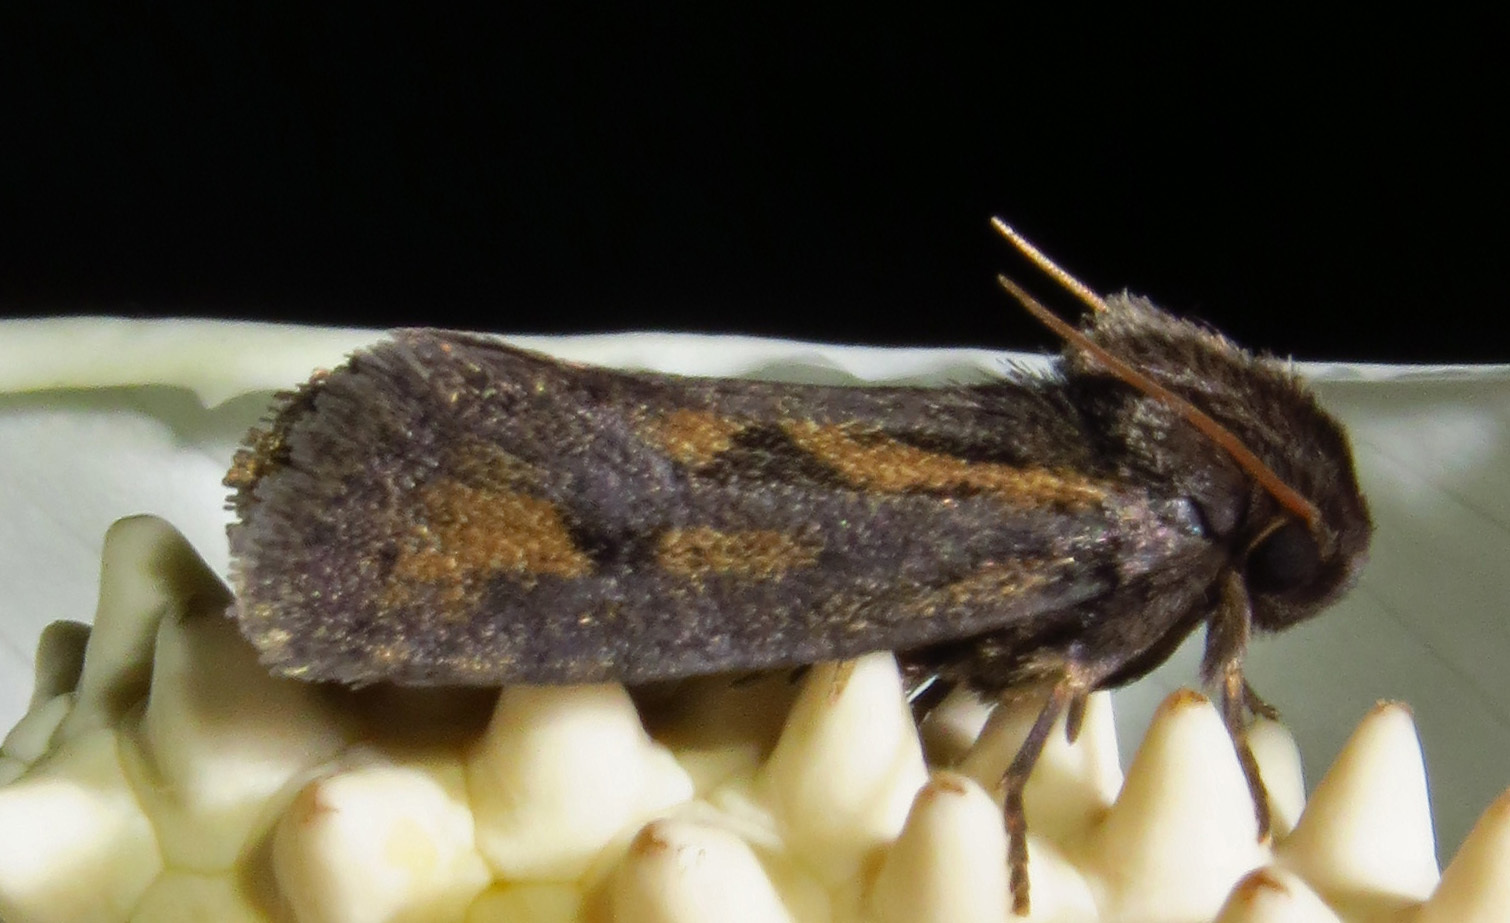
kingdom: Animalia
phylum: Arthropoda
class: Insecta
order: Lepidoptera
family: Tineidae
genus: Acrolophus
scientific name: Acrolophus popeanella
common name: Clemens' grass tubeworm moth
